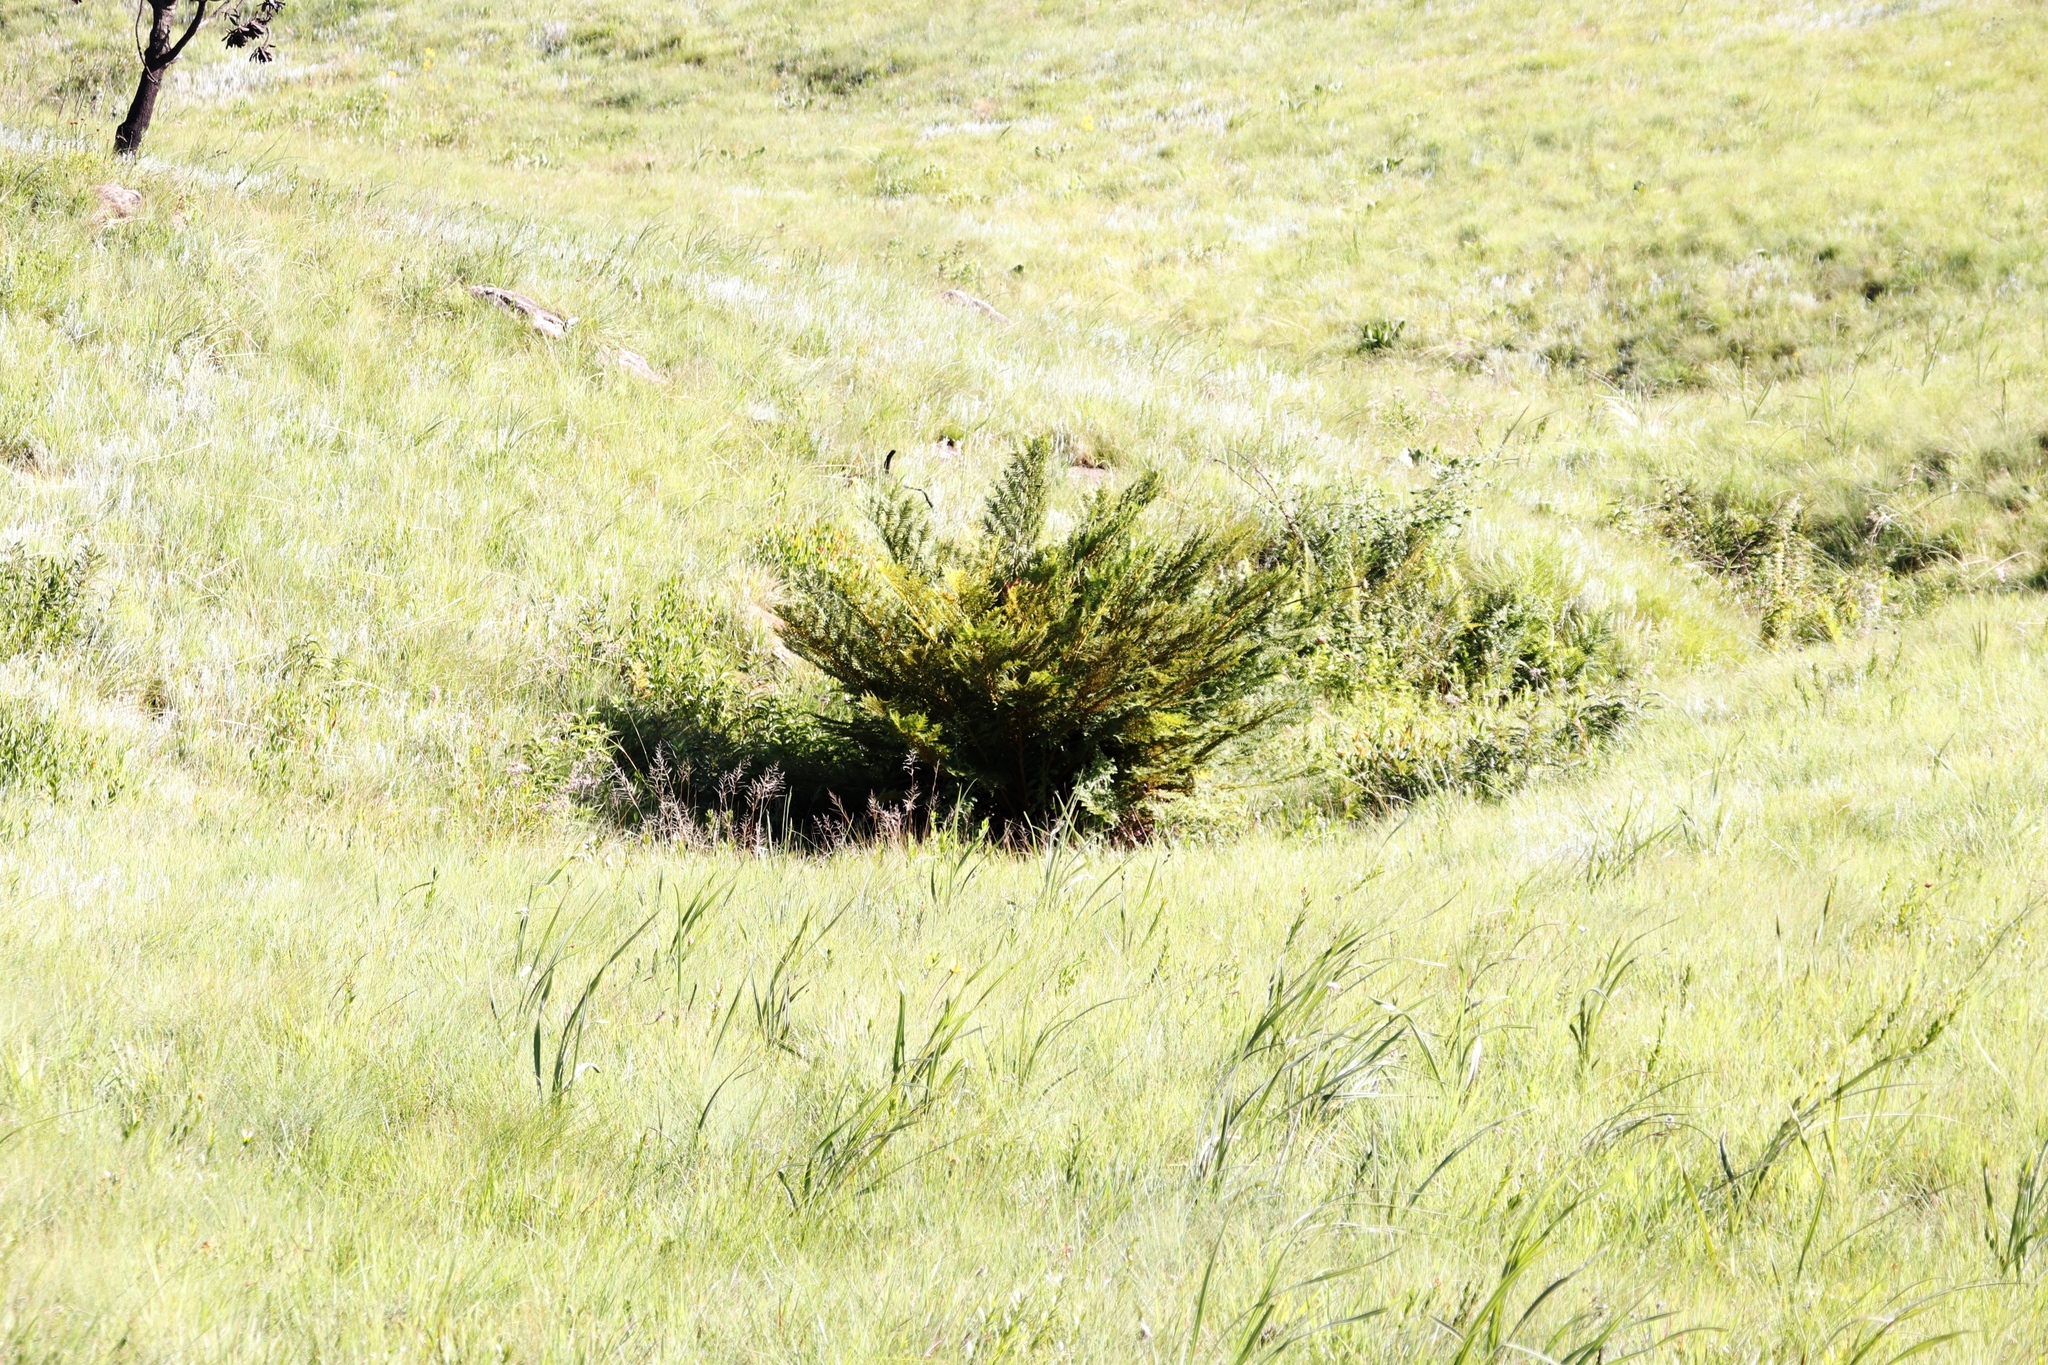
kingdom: Plantae
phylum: Tracheophyta
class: Polypodiopsida
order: Cyatheales
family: Cyatheaceae
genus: Alsophila
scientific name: Alsophila dregei
